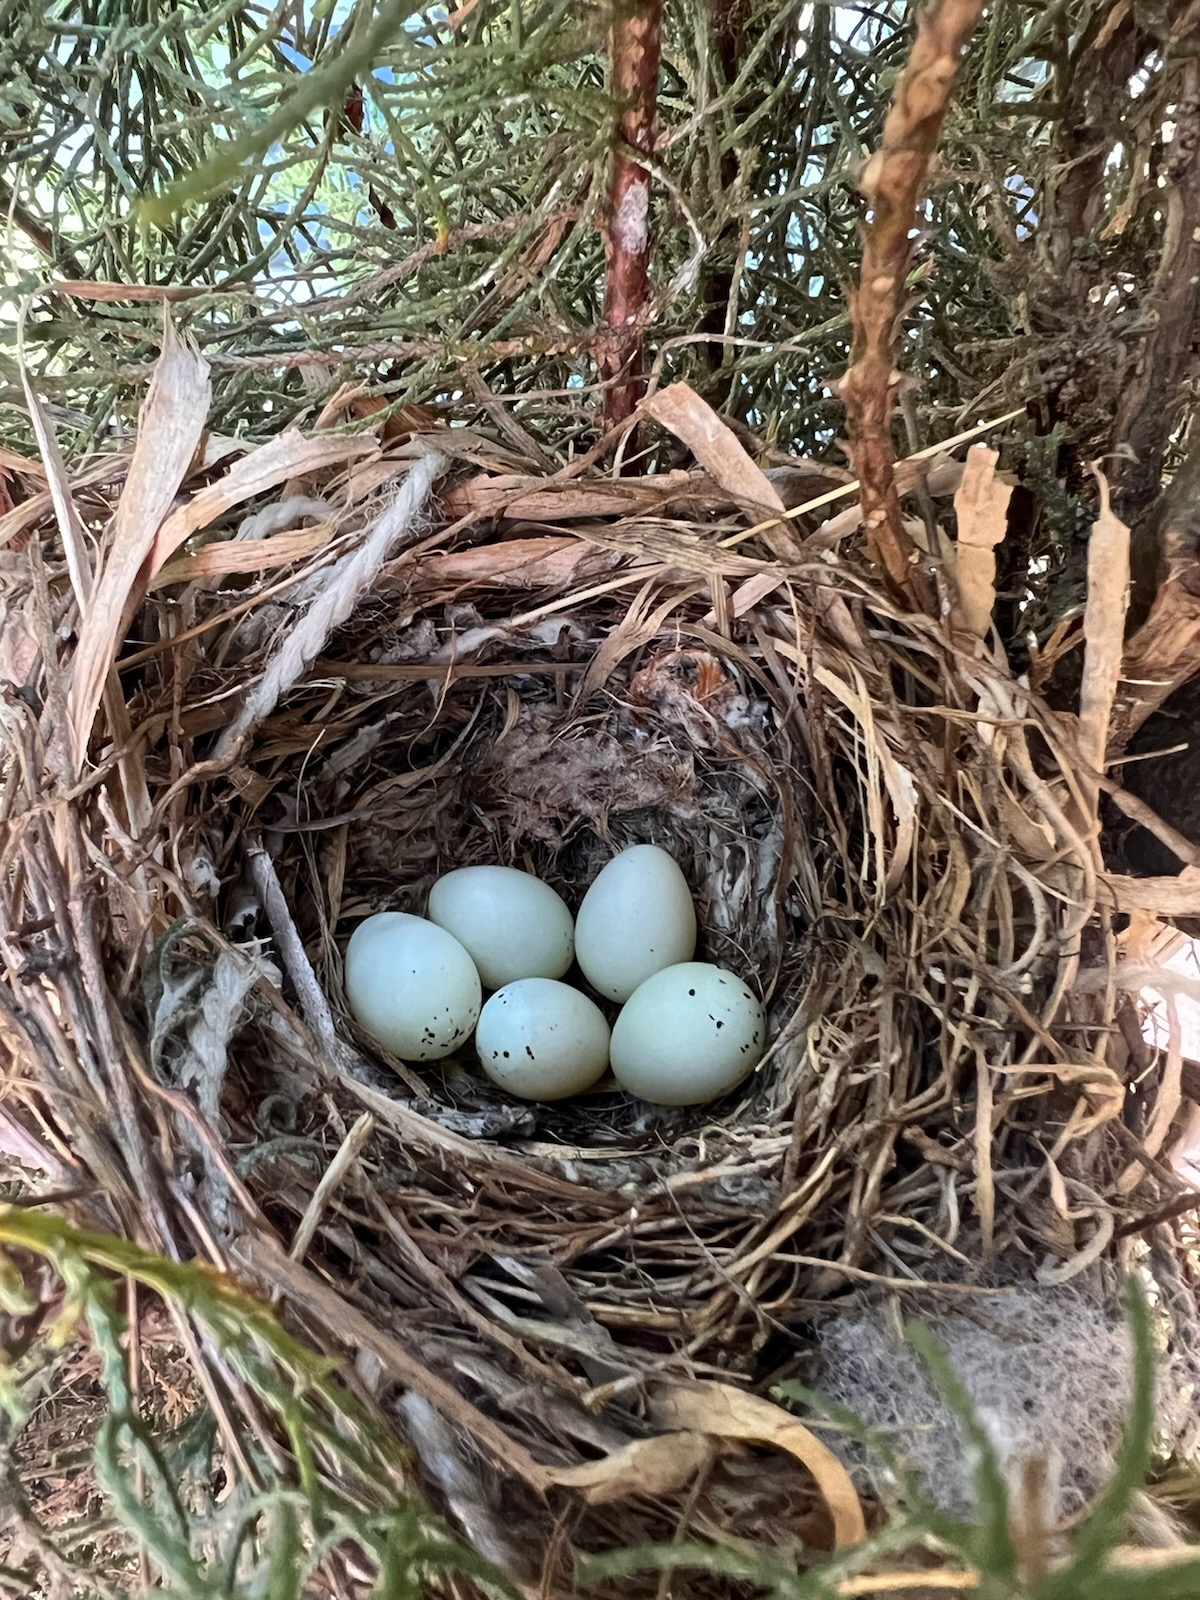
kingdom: Animalia
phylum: Chordata
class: Aves
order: Passeriformes
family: Fringillidae
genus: Haemorhous
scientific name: Haemorhous mexicanus
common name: House finch
